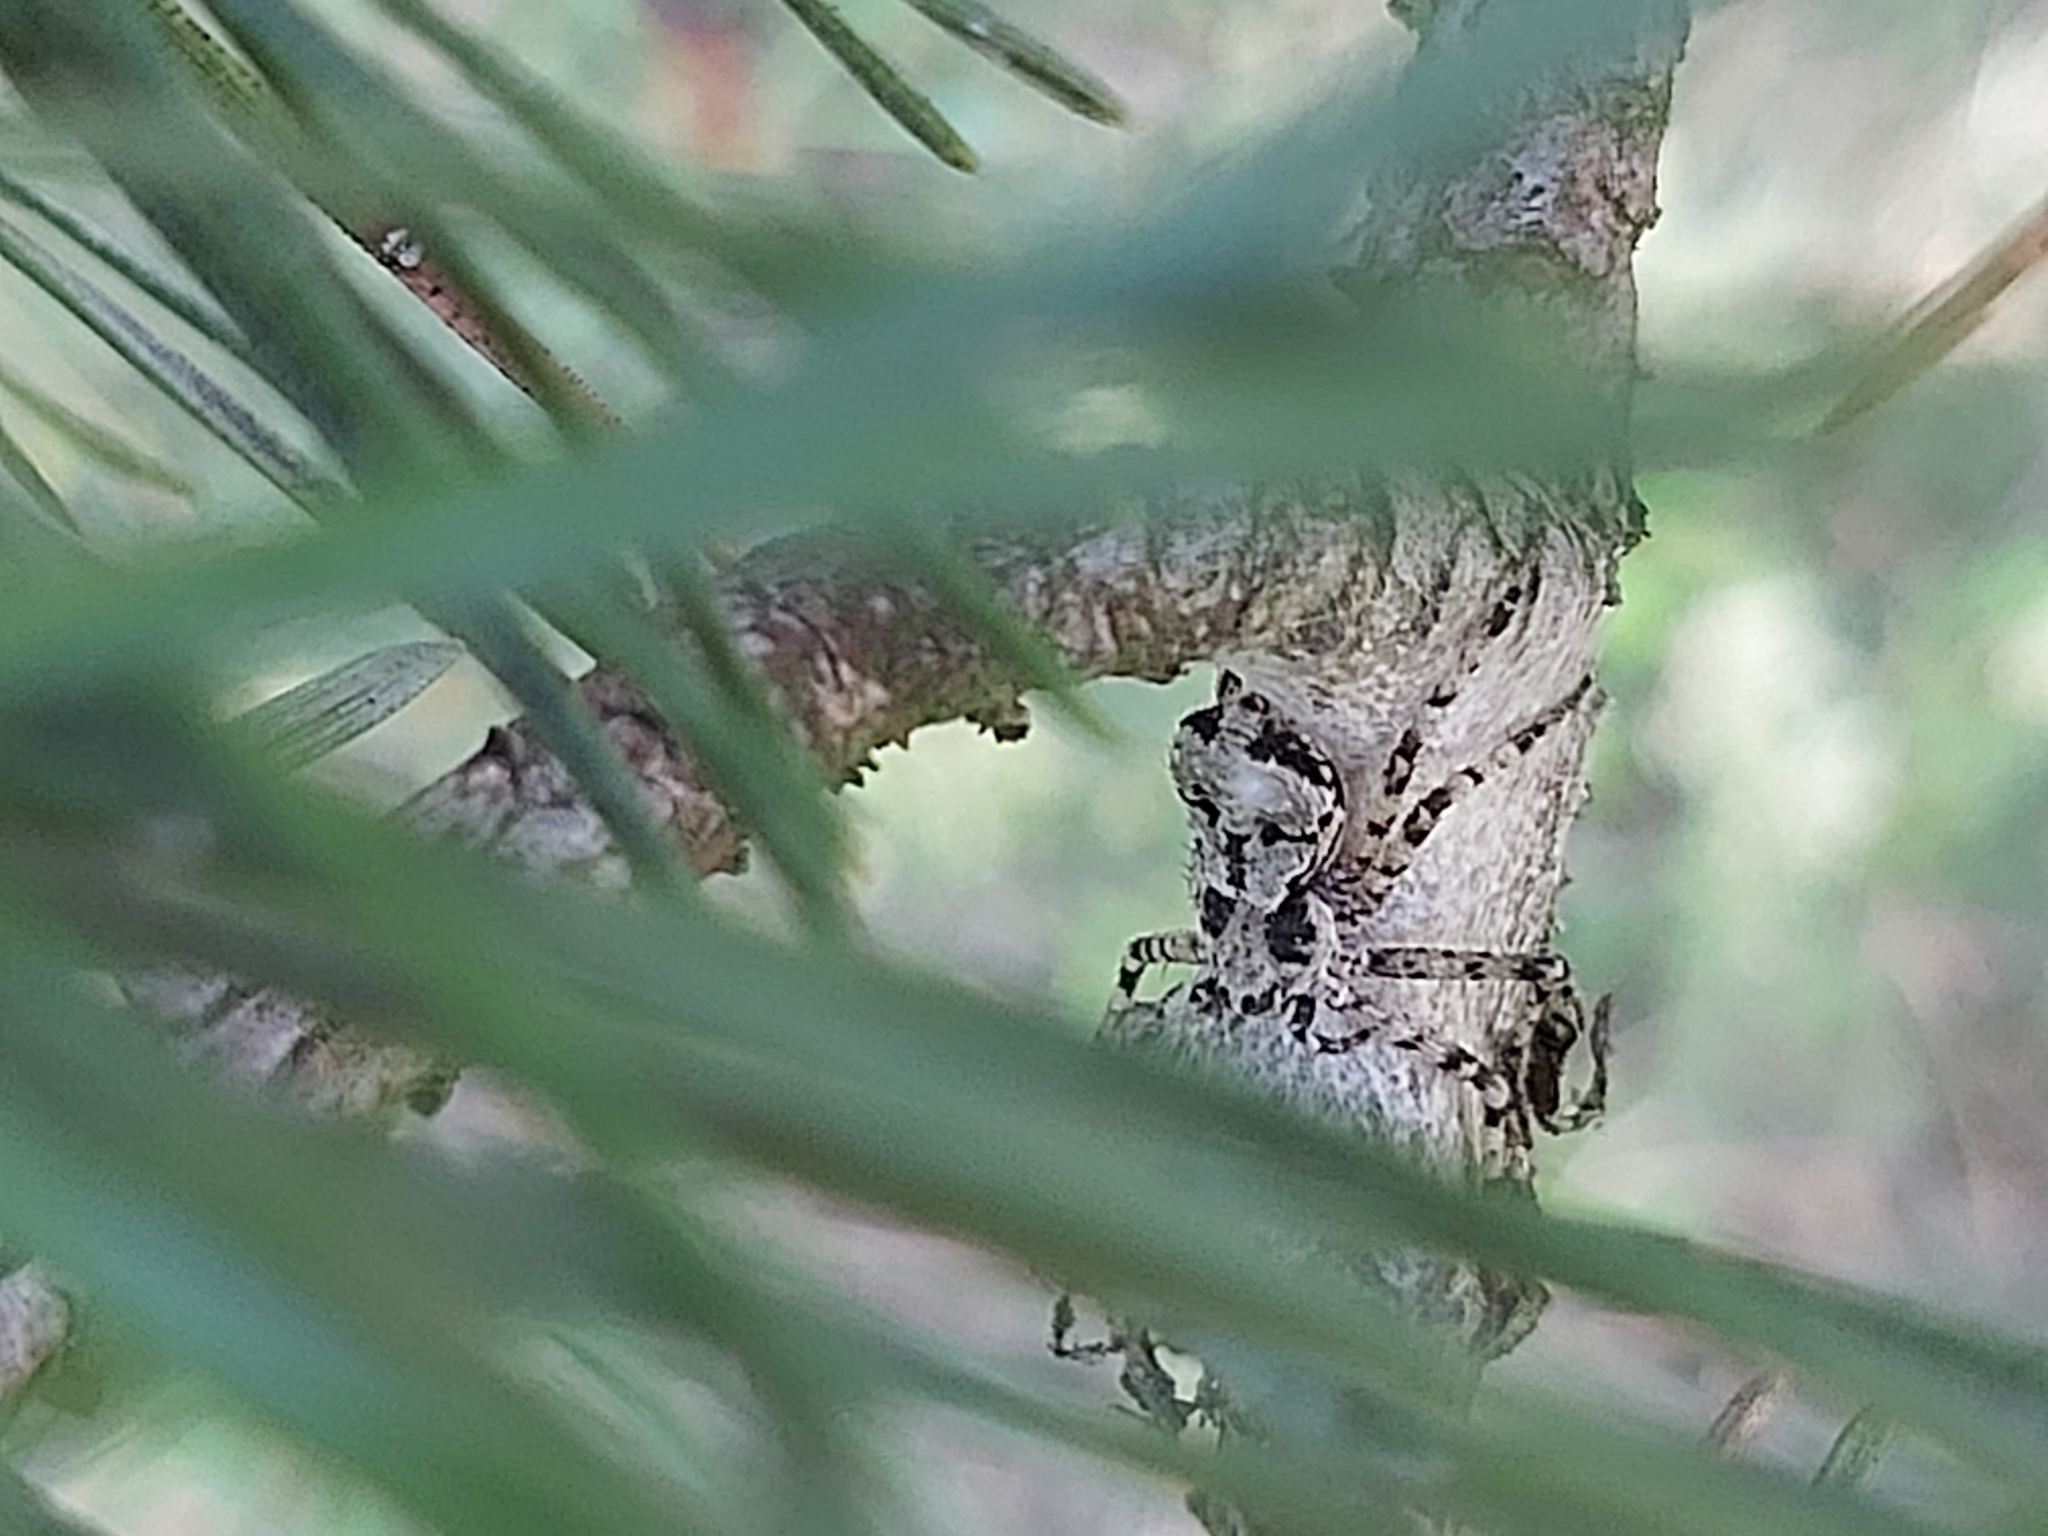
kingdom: Animalia
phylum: Arthropoda
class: Arachnida
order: Araneae
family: Philodromidae
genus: Philodromus
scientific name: Philodromus margaritatus
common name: Lichen running-spider
